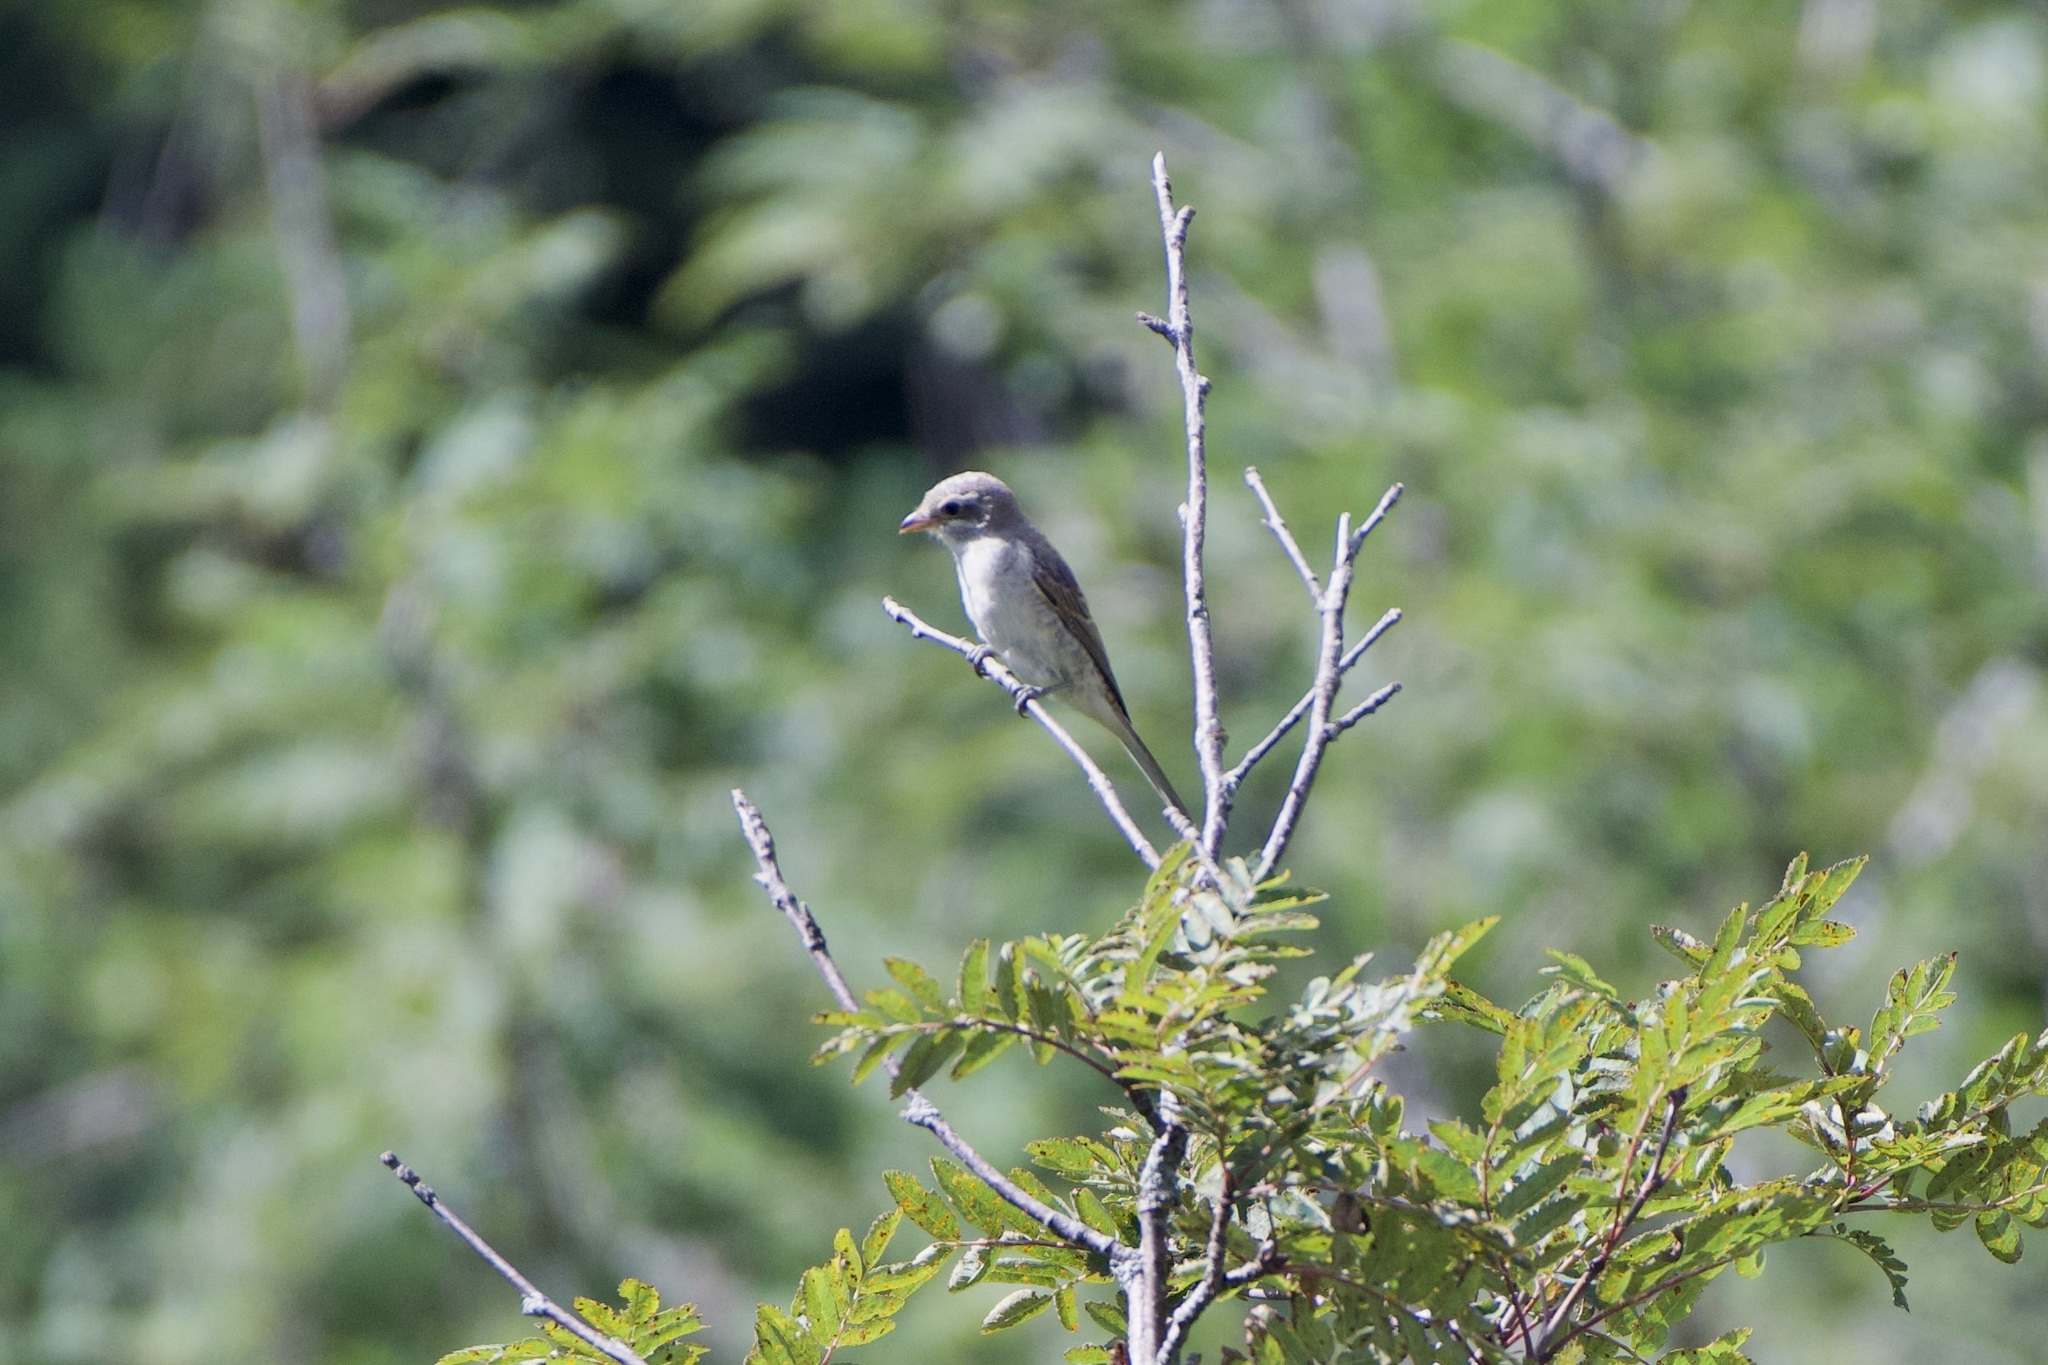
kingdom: Animalia
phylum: Chordata
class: Aves
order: Passeriformes
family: Laniidae
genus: Lanius
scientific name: Lanius collurio
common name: Red-backed shrike
